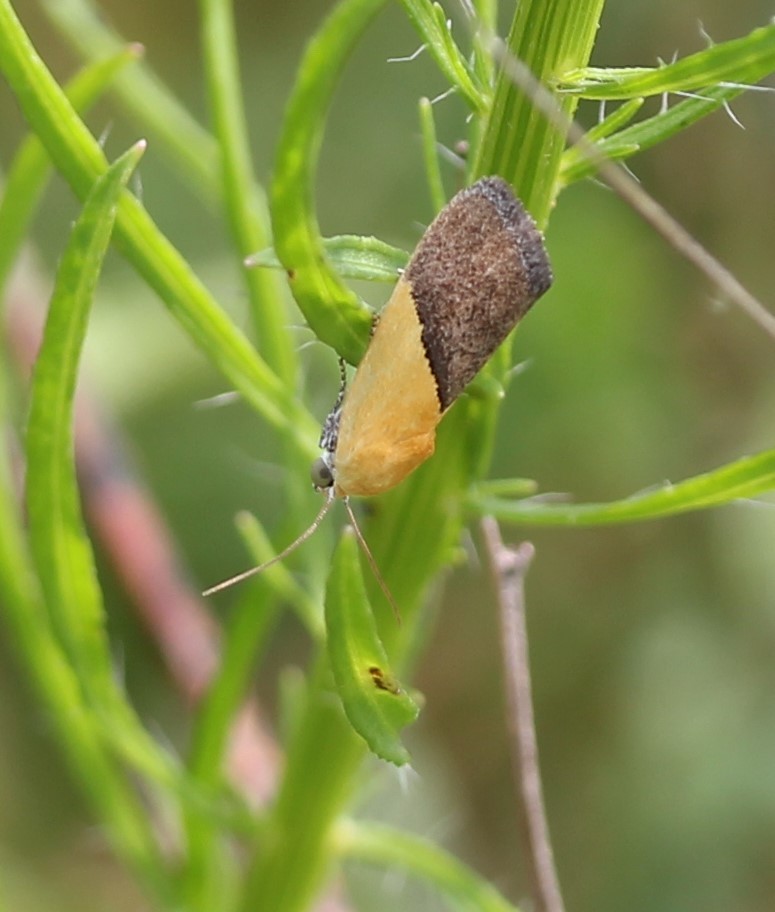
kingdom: Animalia
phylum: Arthropoda
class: Insecta
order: Lepidoptera
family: Noctuidae
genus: Acontia
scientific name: Acontia semiflava
